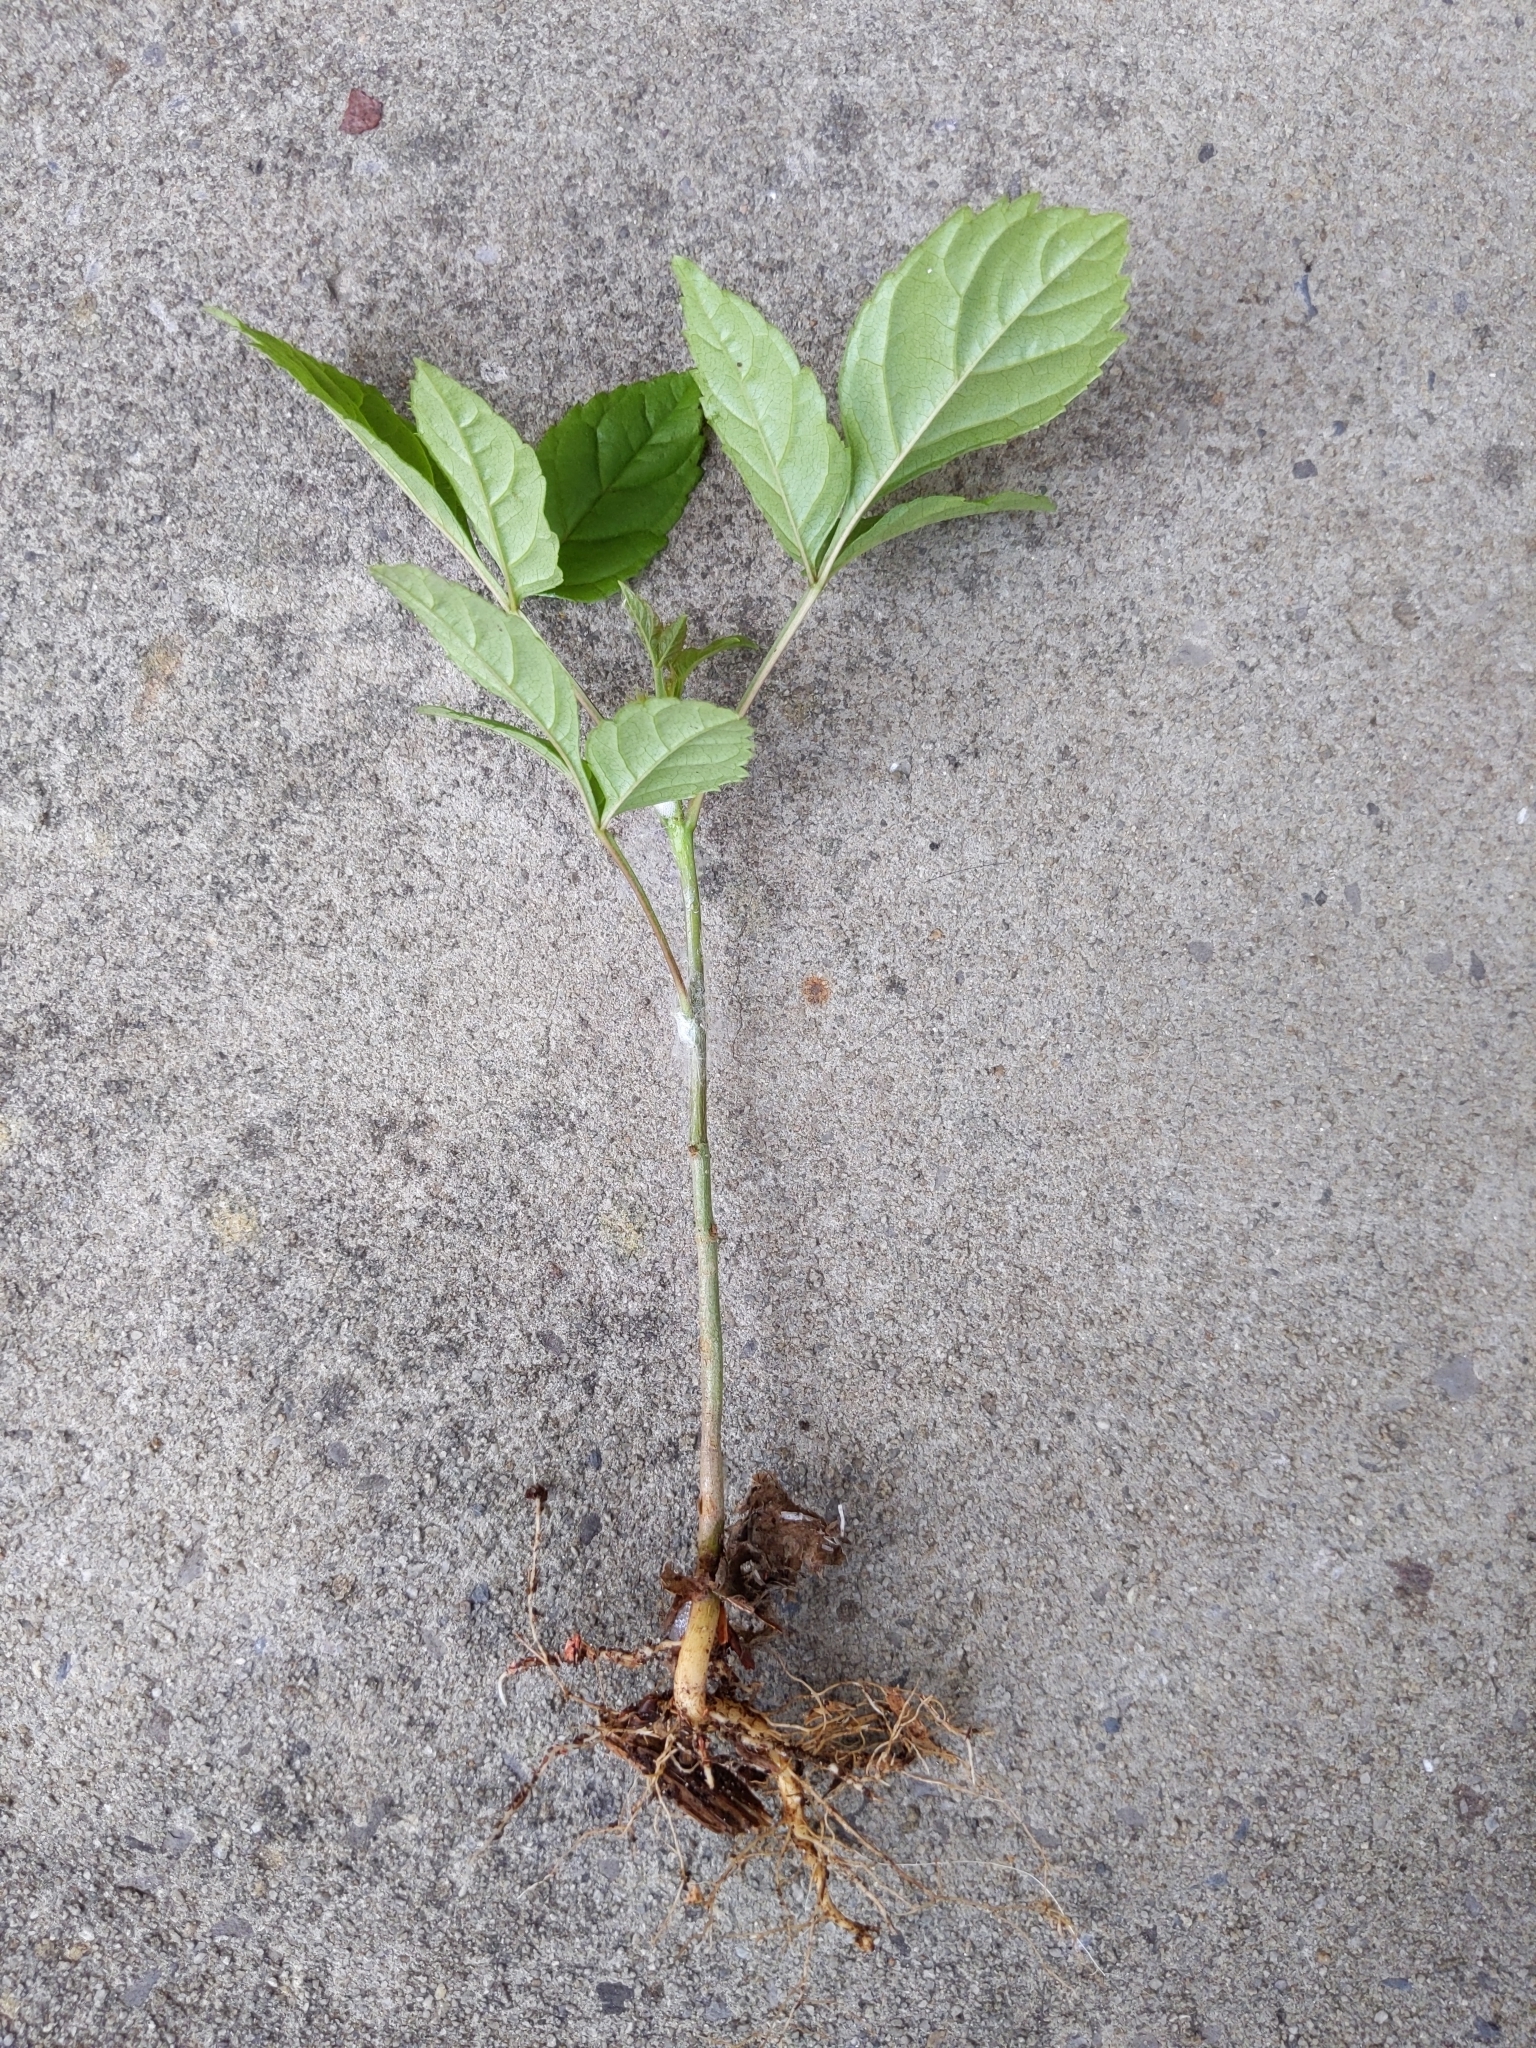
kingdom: Plantae
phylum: Tracheophyta
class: Magnoliopsida
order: Sapindales
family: Sapindaceae
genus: Acer
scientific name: Acer negundo
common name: Ashleaf maple
